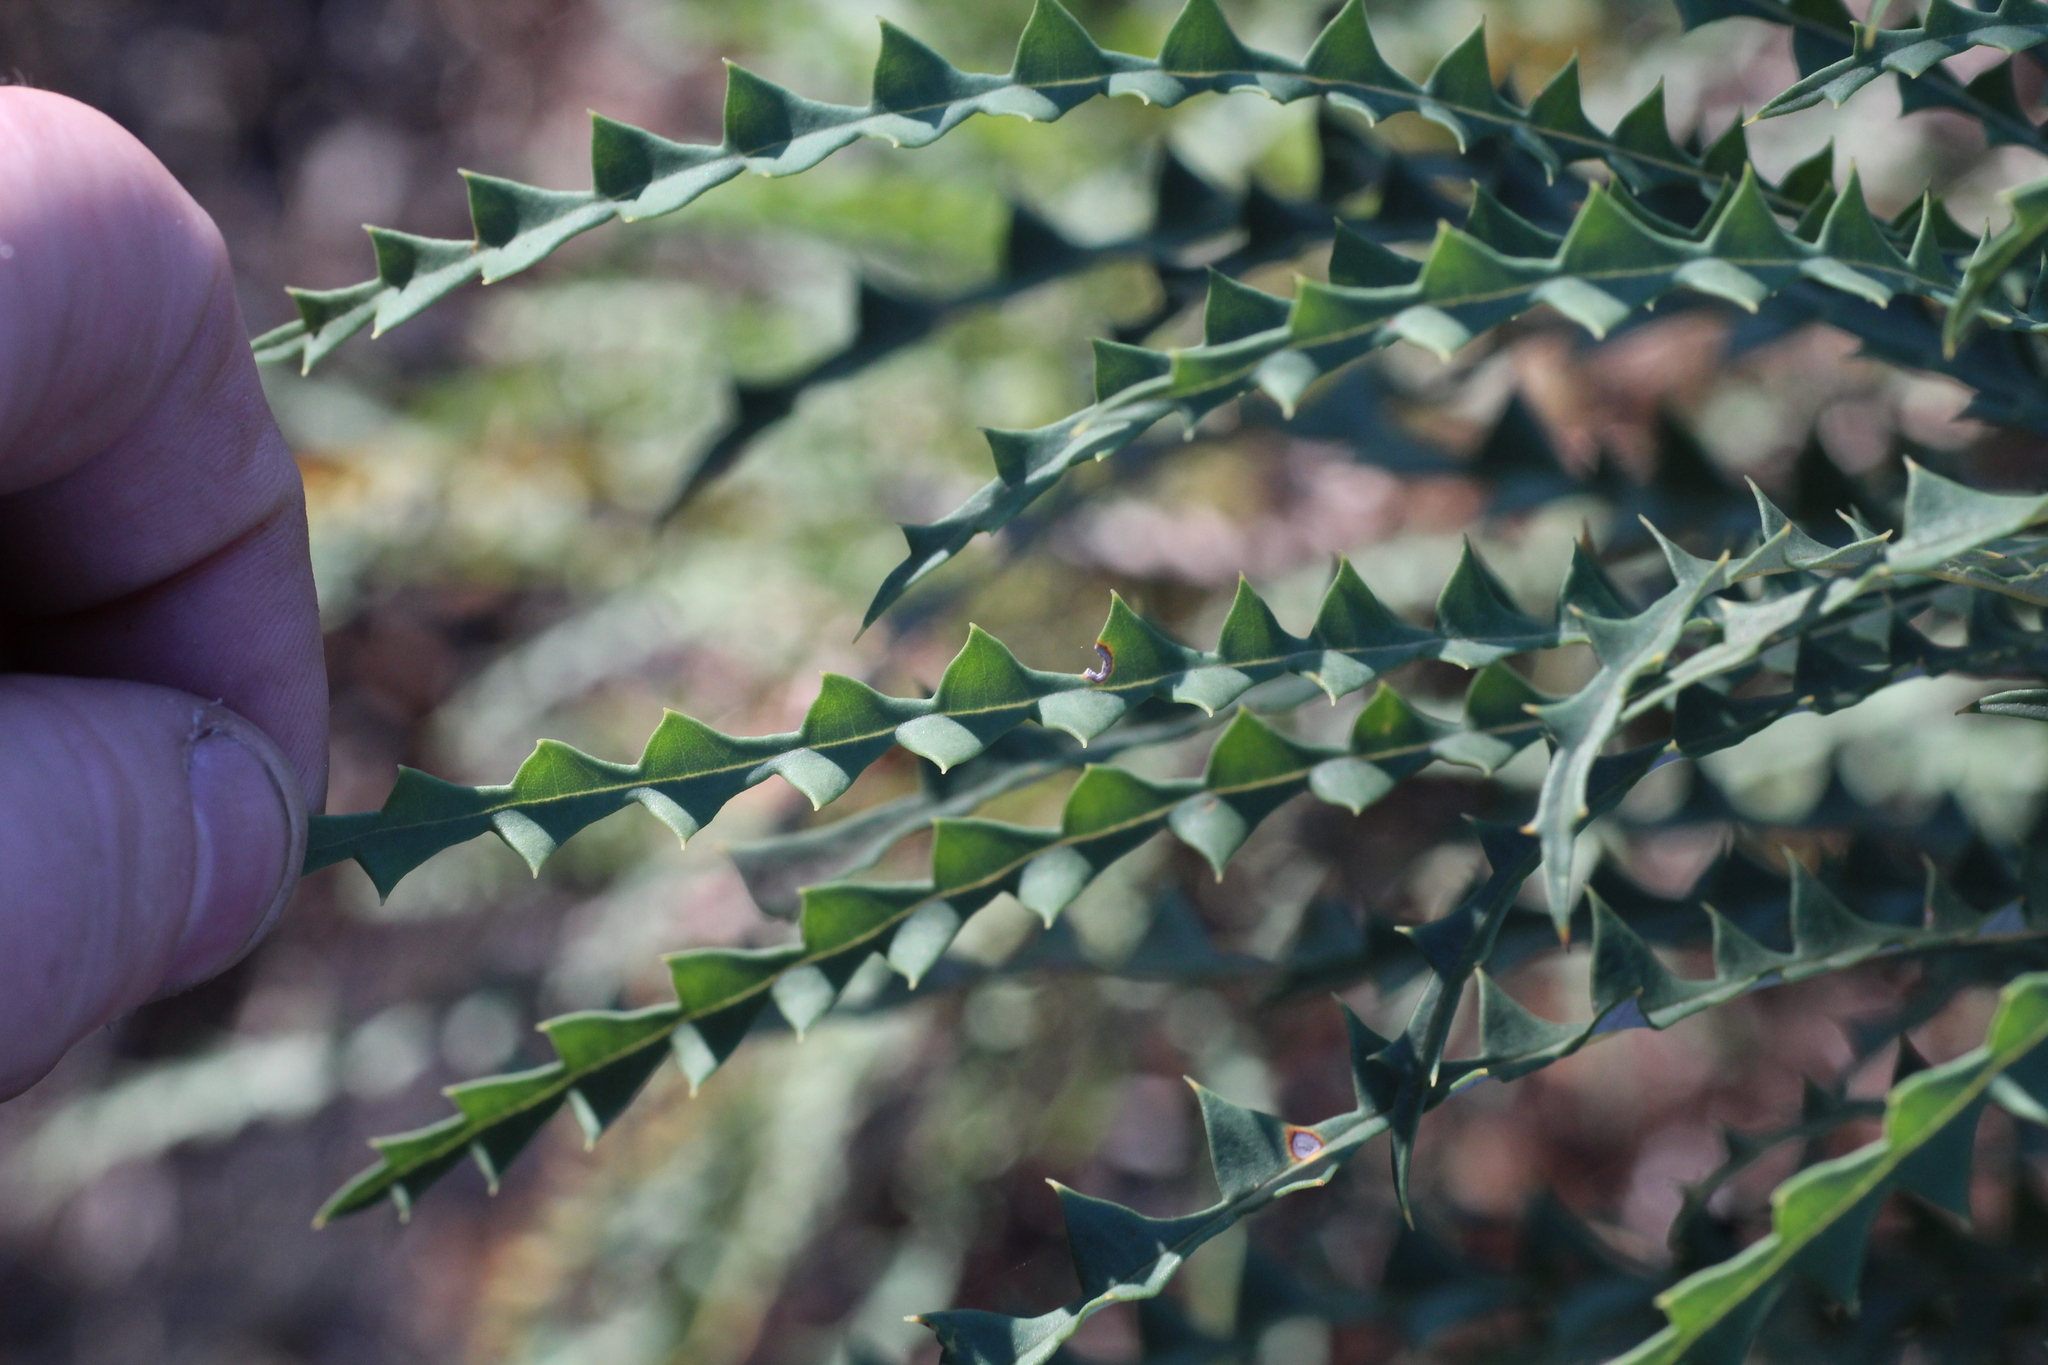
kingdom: Plantae
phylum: Tracheophyta
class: Magnoliopsida
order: Proteales
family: Proteaceae
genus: Banksia
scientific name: Banksia nobilis
